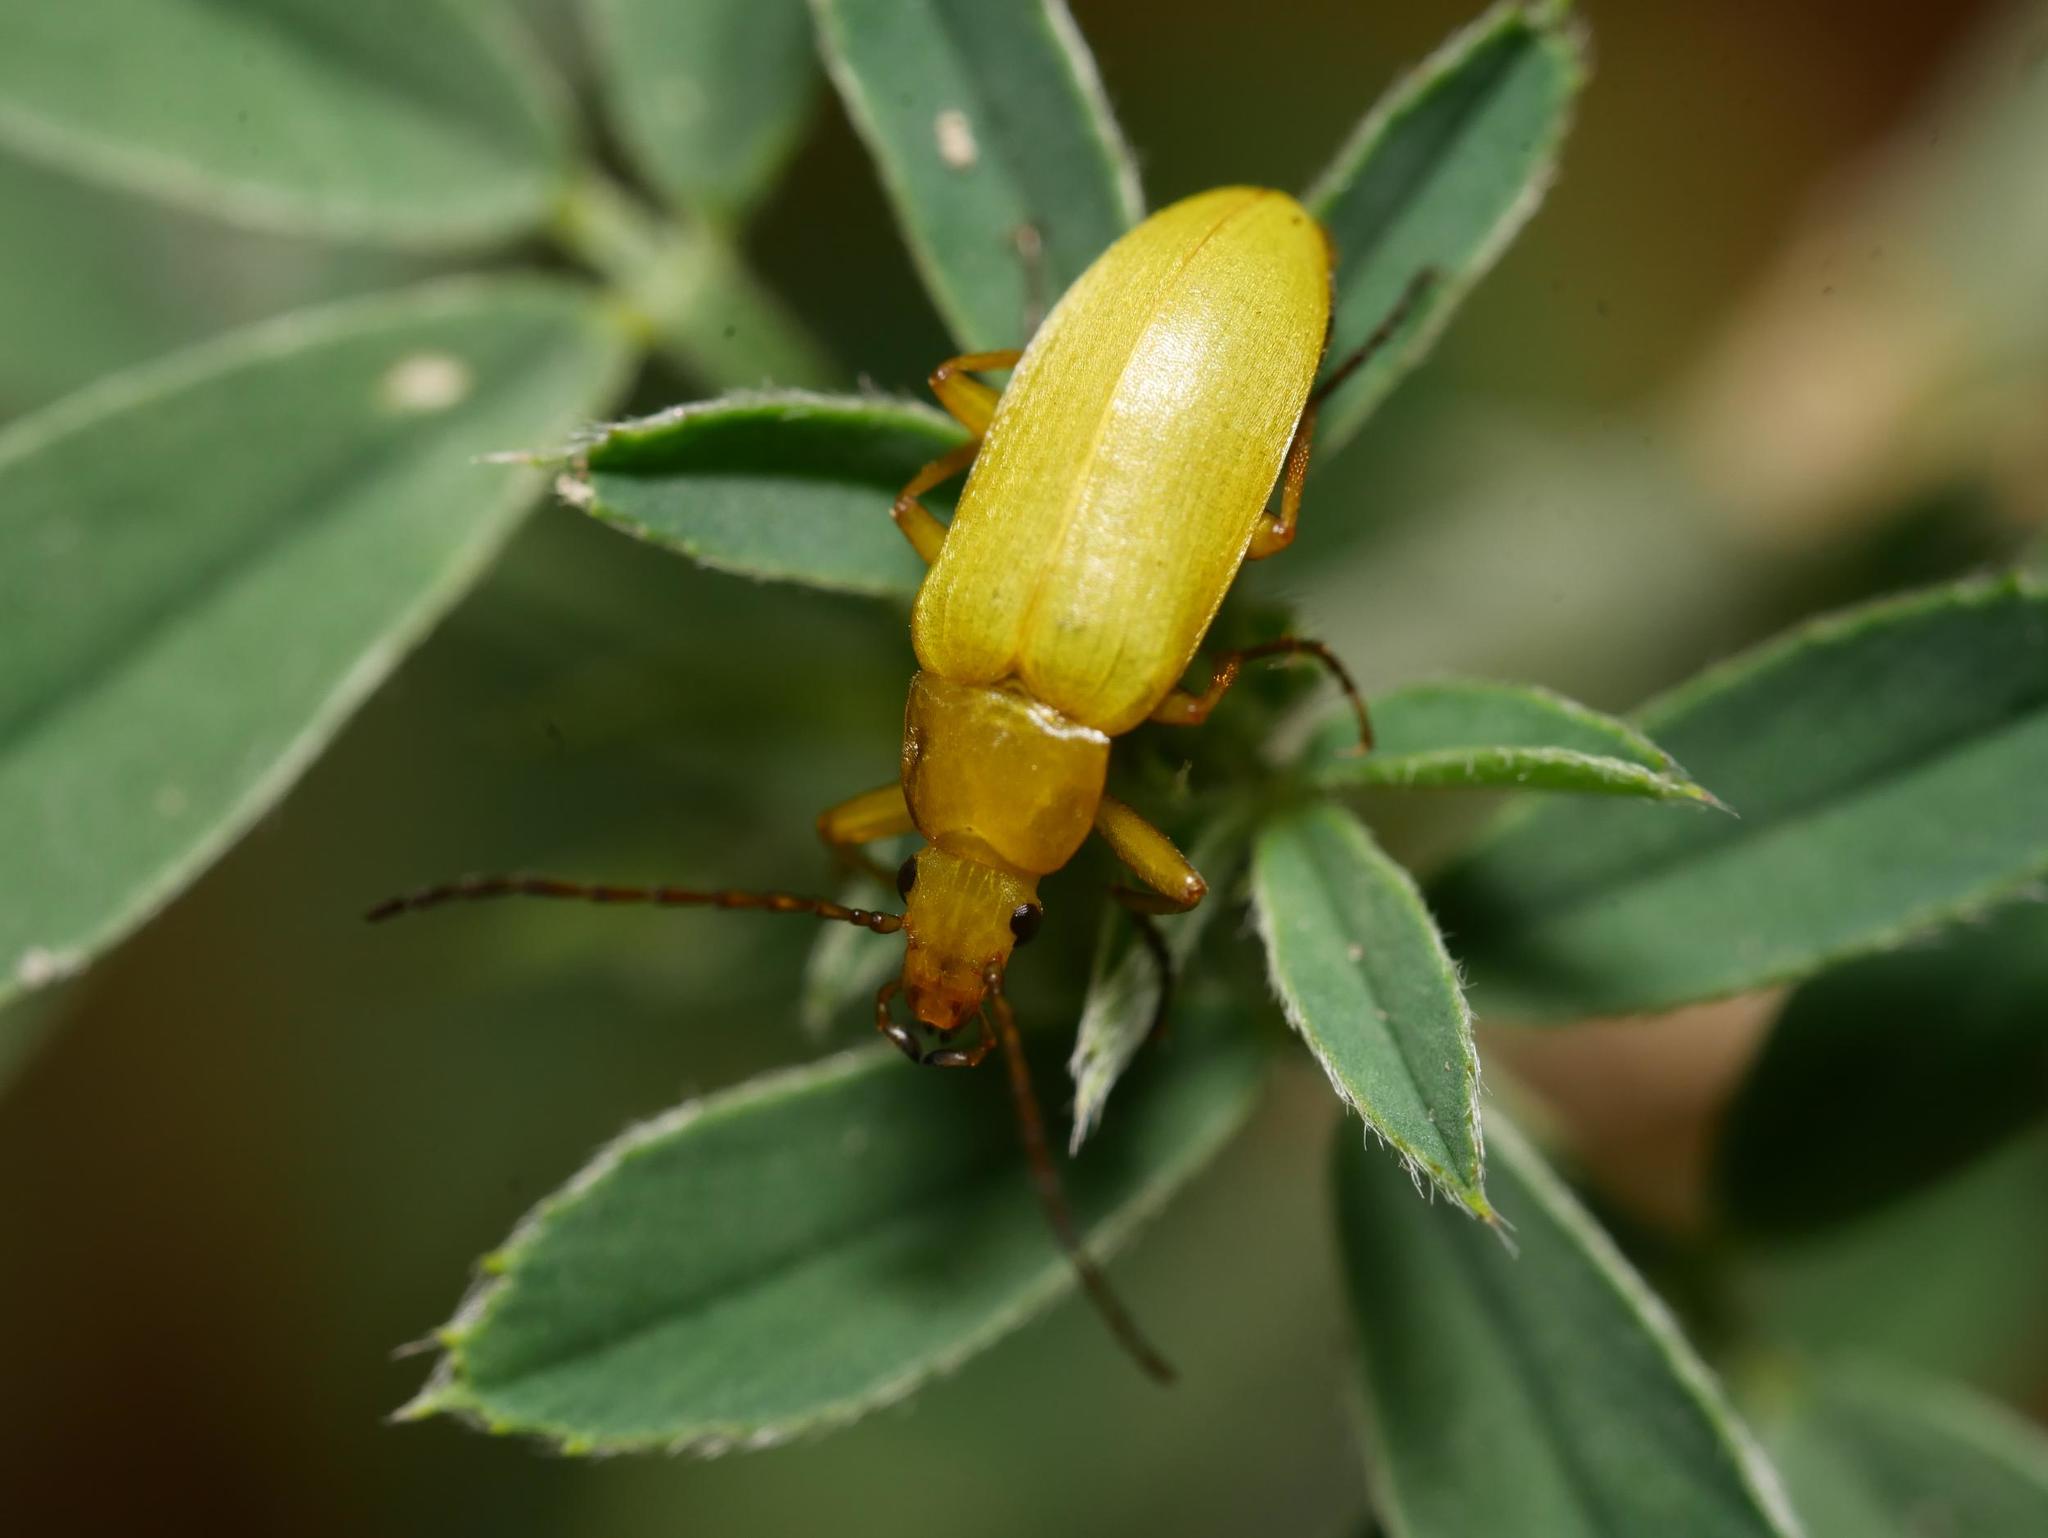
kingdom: Animalia
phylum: Arthropoda
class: Insecta
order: Coleoptera
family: Tenebrionidae
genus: Cteniopus
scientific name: Cteniopus sulphureus
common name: Sulphur beetle
